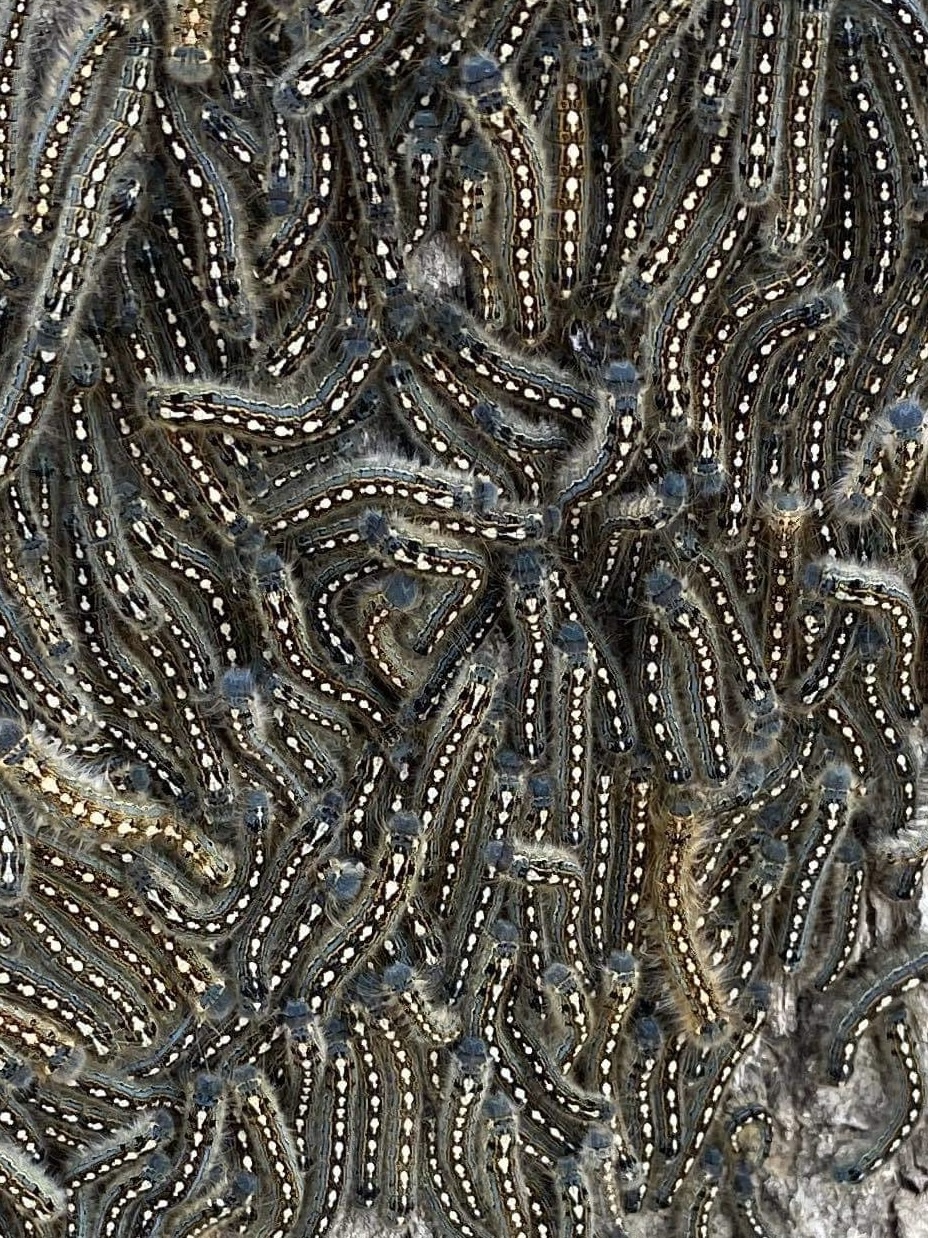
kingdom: Animalia
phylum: Arthropoda
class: Insecta
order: Lepidoptera
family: Lasiocampidae
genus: Malacosoma
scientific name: Malacosoma disstria
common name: Forest tent caterpillar
